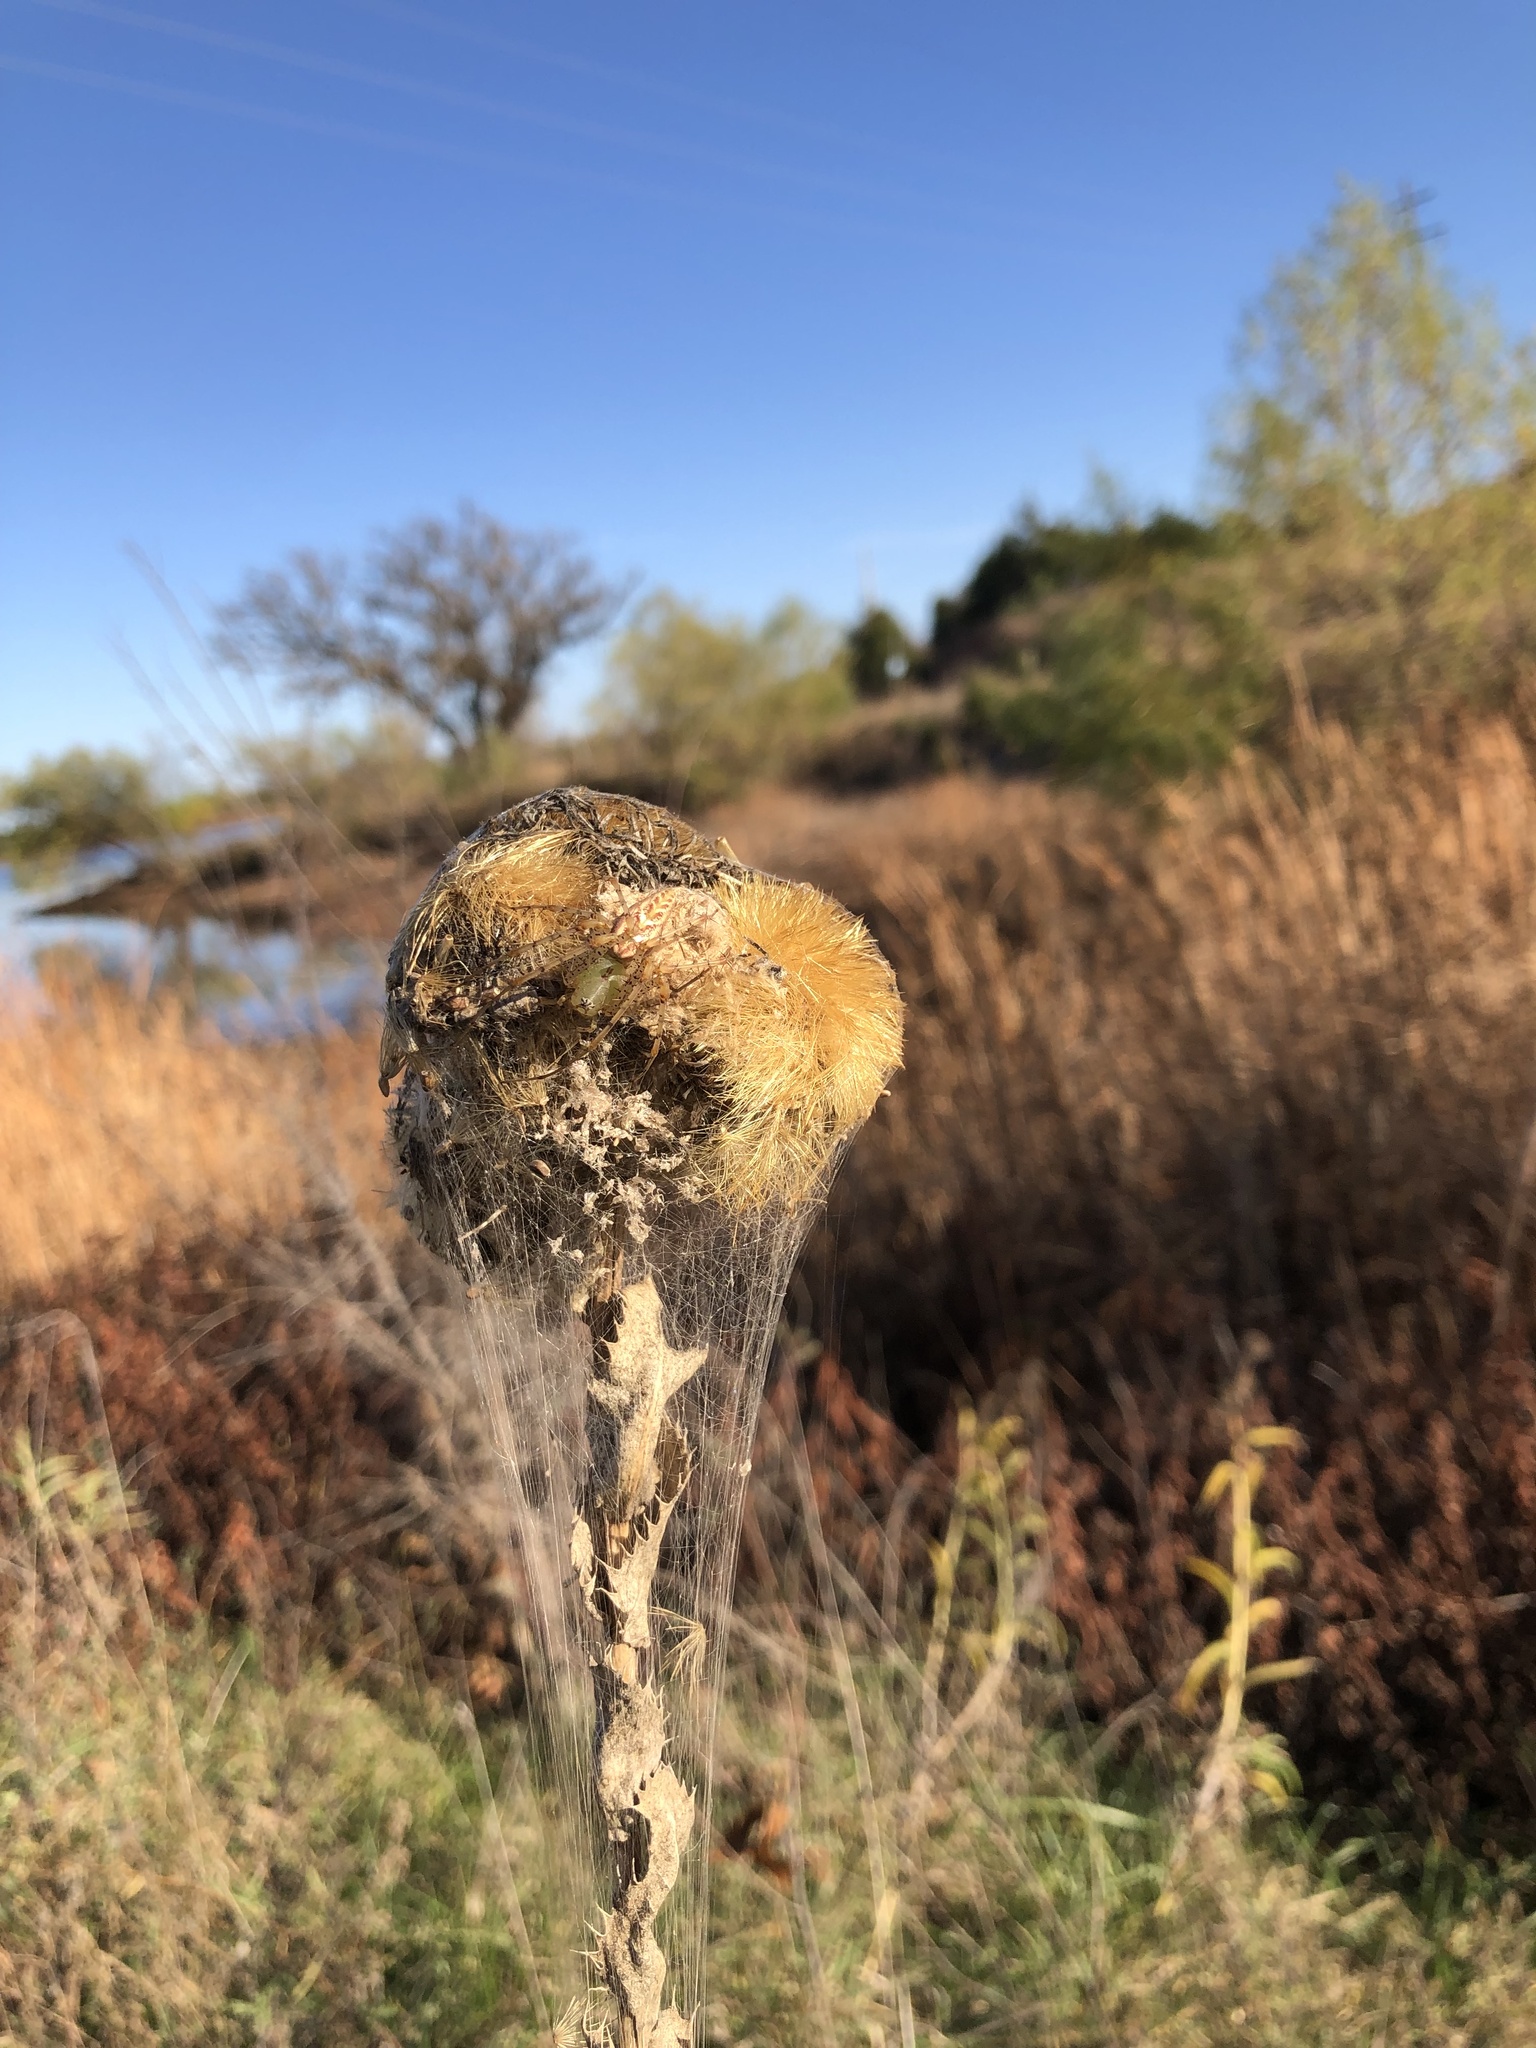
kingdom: Plantae
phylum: Tracheophyta
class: Magnoliopsida
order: Asterales
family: Asteraceae
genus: Grindelia
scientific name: Grindelia ciliata
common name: Goldenweed
